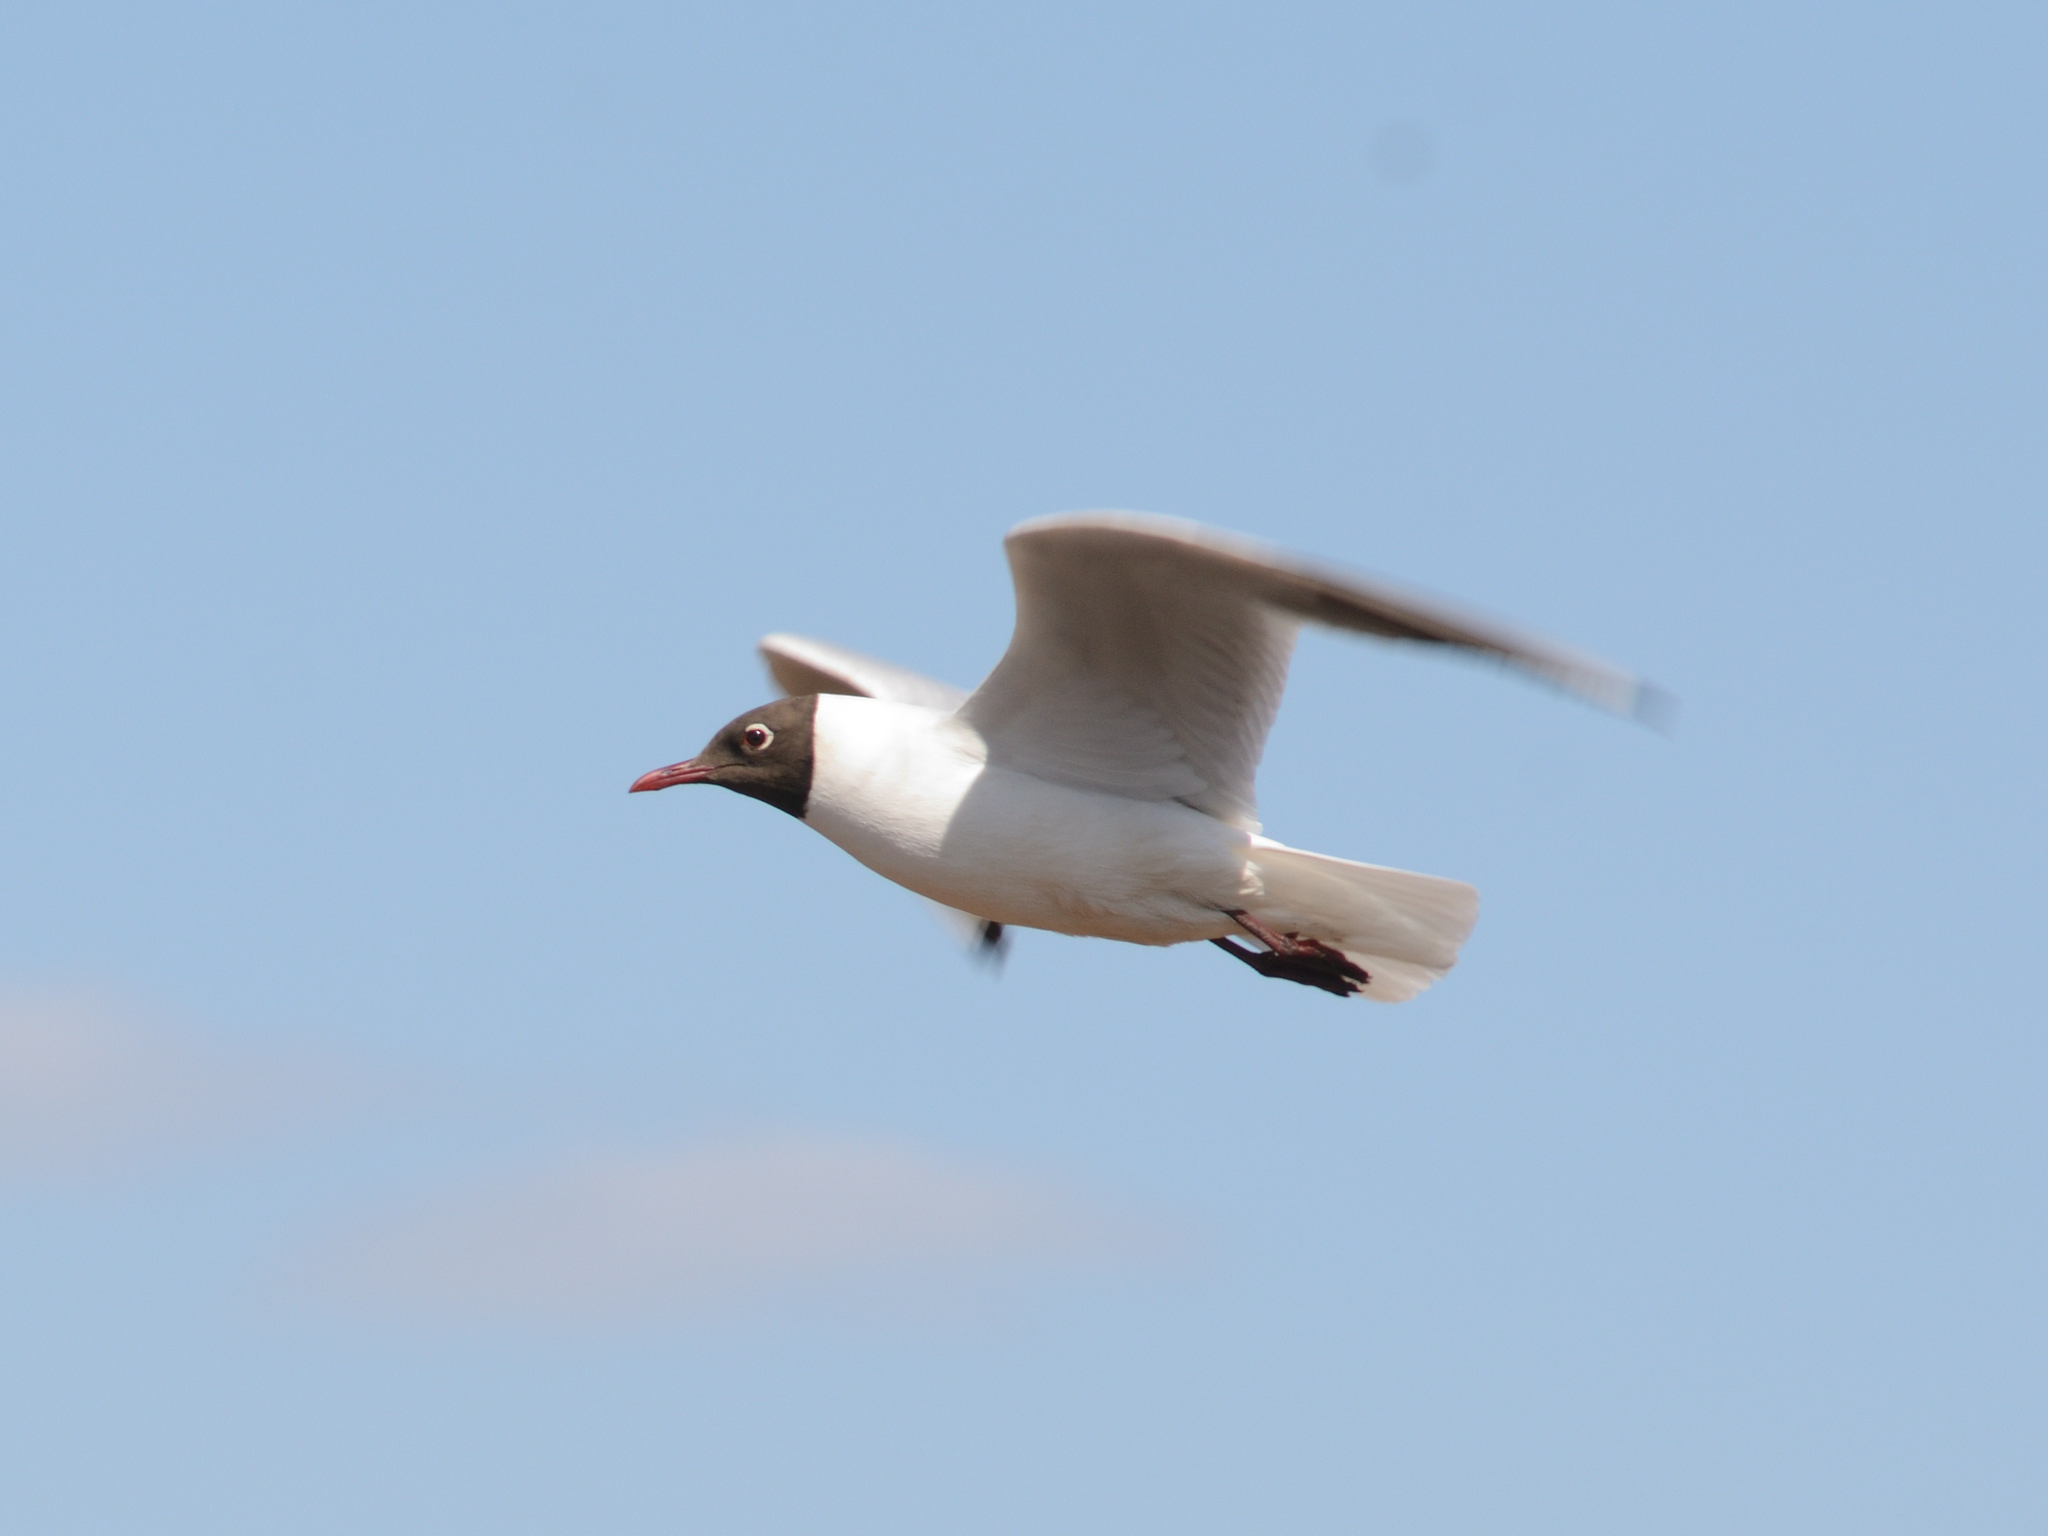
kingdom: Animalia
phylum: Chordata
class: Aves
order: Charadriiformes
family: Laridae
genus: Chroicocephalus
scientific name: Chroicocephalus ridibundus
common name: Black-headed gull
